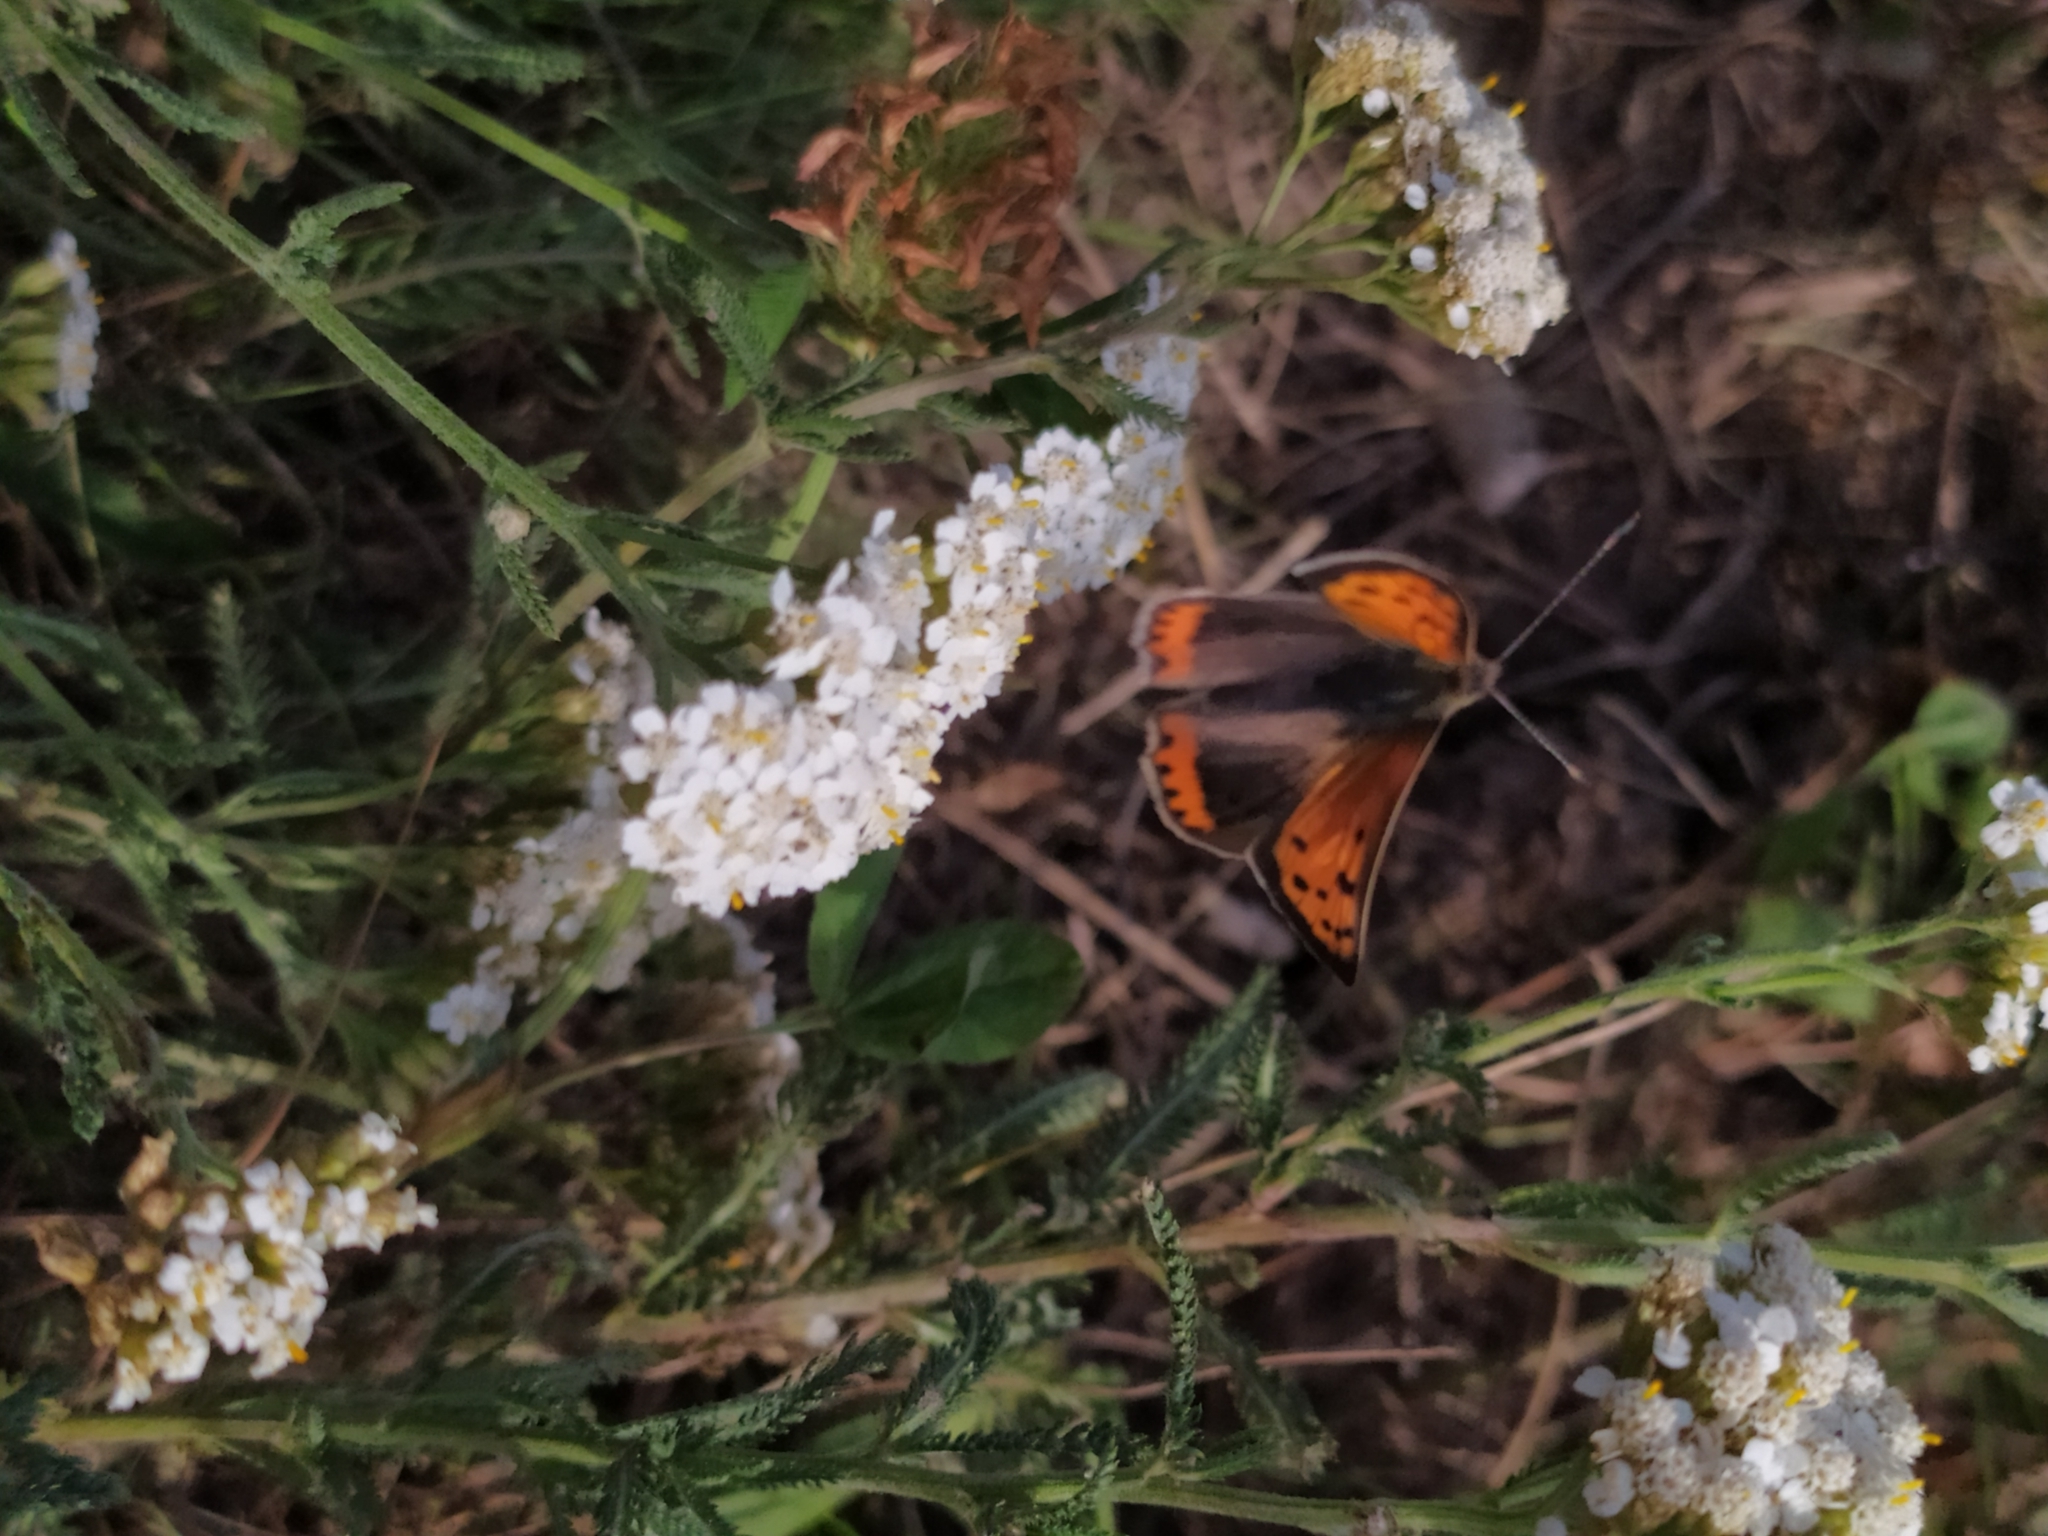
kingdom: Animalia
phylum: Arthropoda
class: Insecta
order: Lepidoptera
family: Lycaenidae
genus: Lycaena
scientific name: Lycaena phlaeas
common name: Small copper
